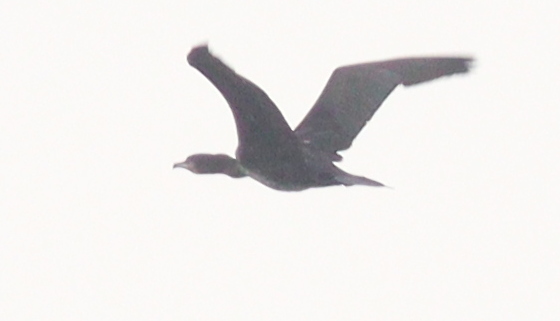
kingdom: Animalia
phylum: Chordata
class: Aves
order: Suliformes
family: Phalacrocoracidae
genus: Phalacrocorax
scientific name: Phalacrocorax carbo
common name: Great cormorant
